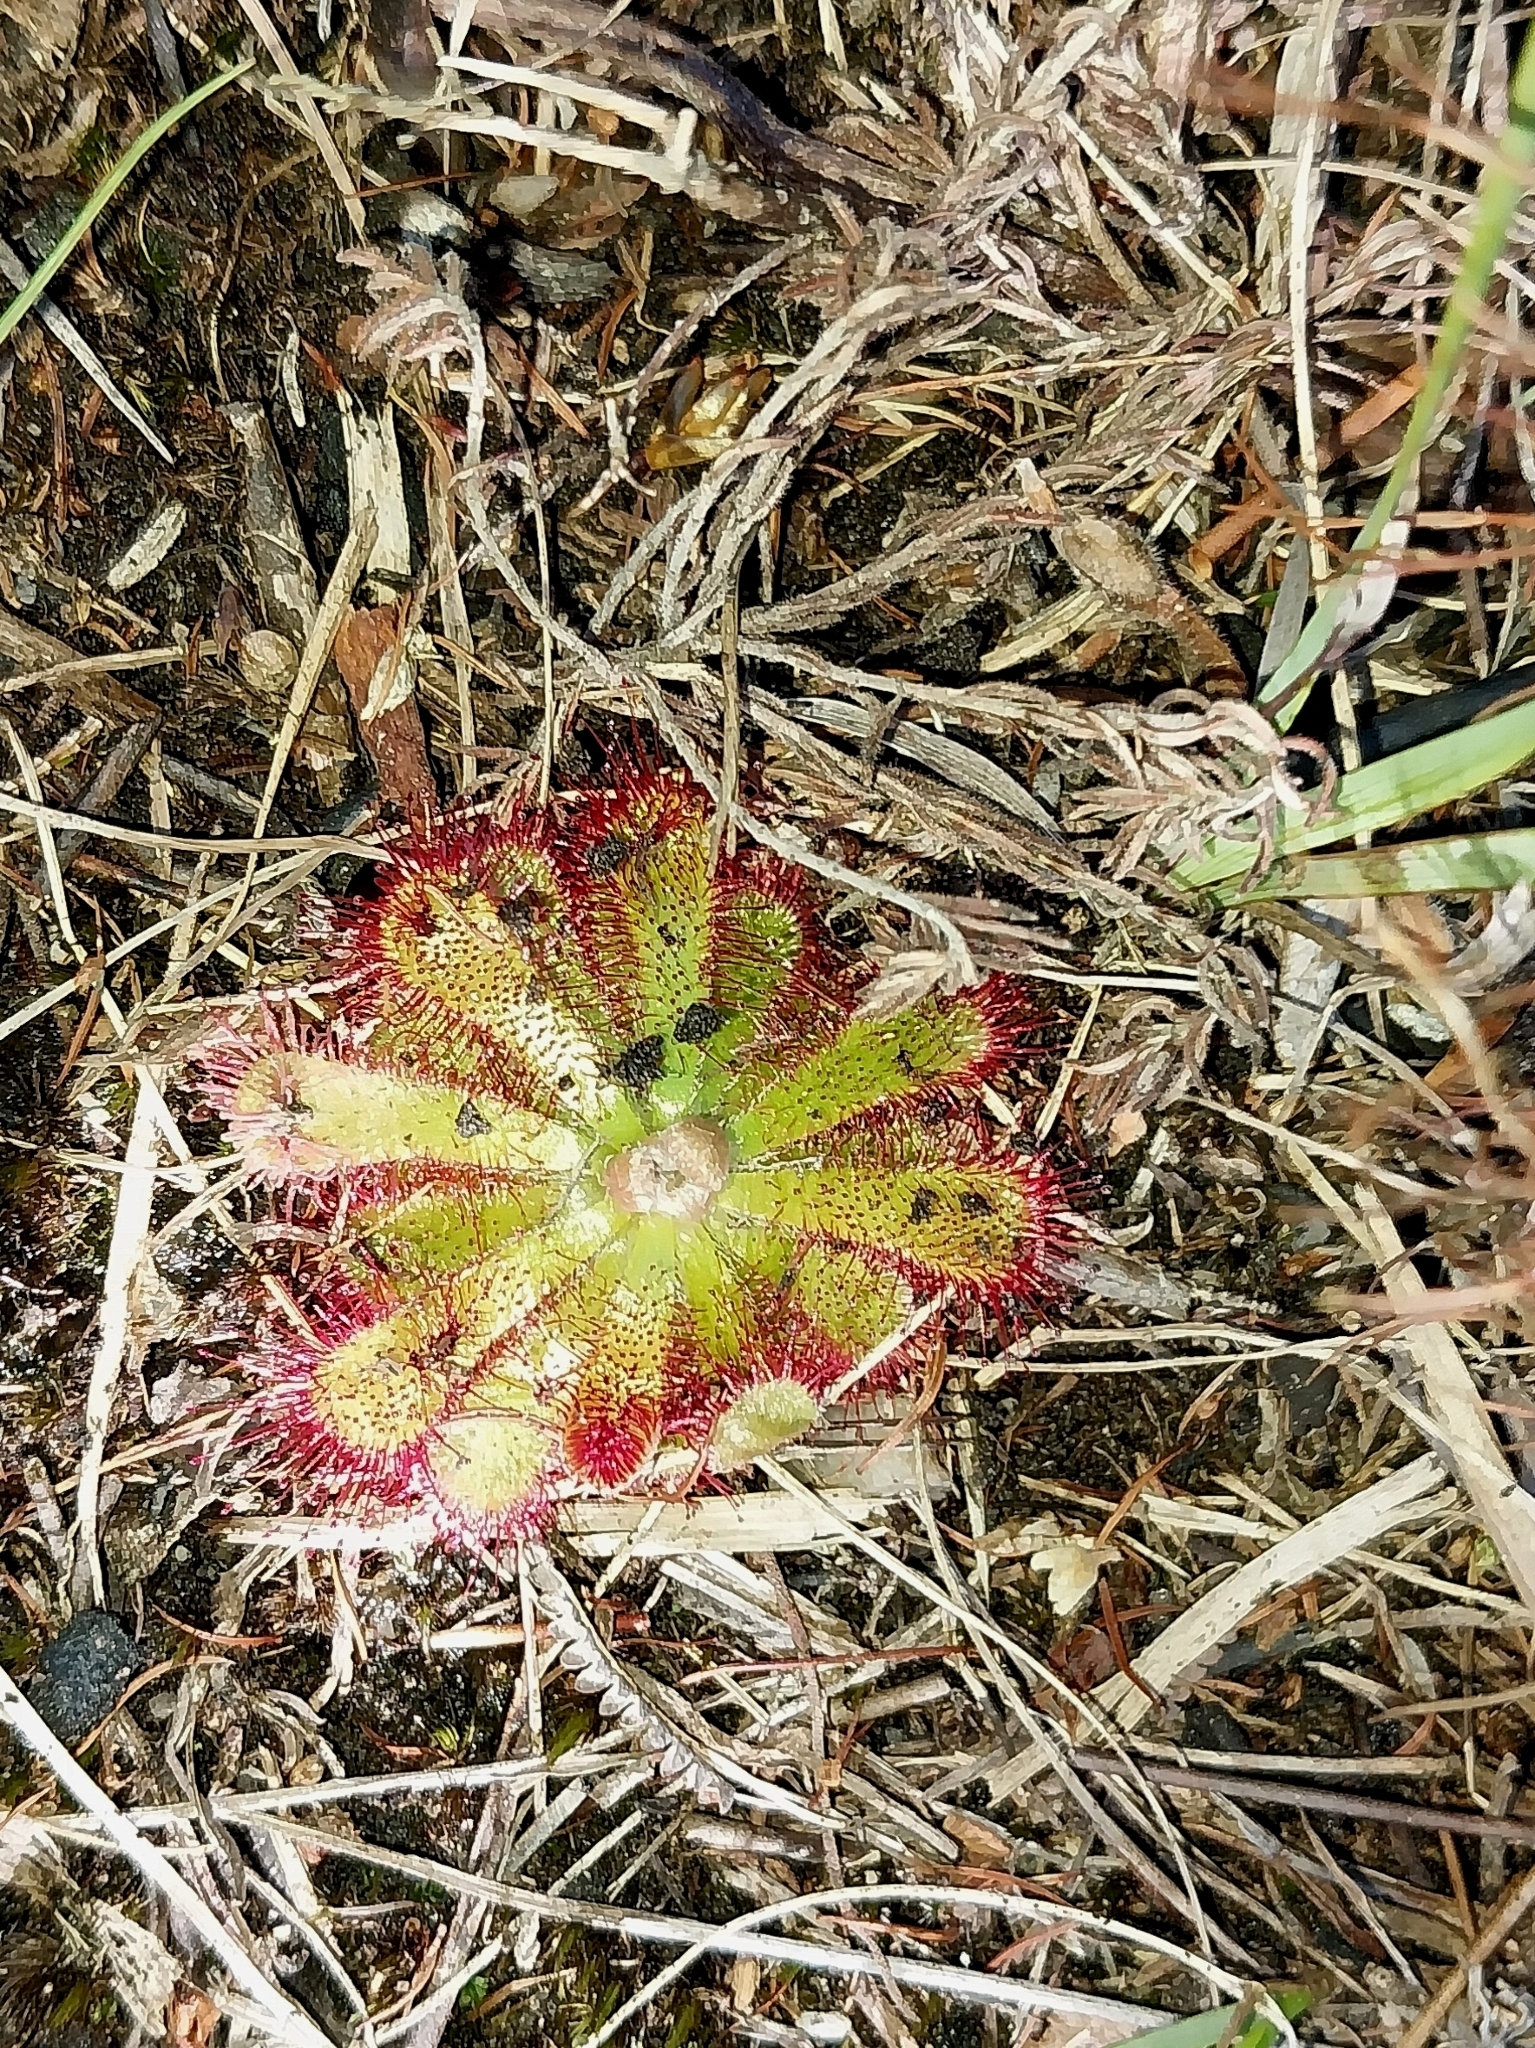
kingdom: Plantae
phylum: Tracheophyta
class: Magnoliopsida
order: Caryophyllales
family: Droseraceae
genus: Drosera
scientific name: Drosera aliciae
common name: Alice sundew
